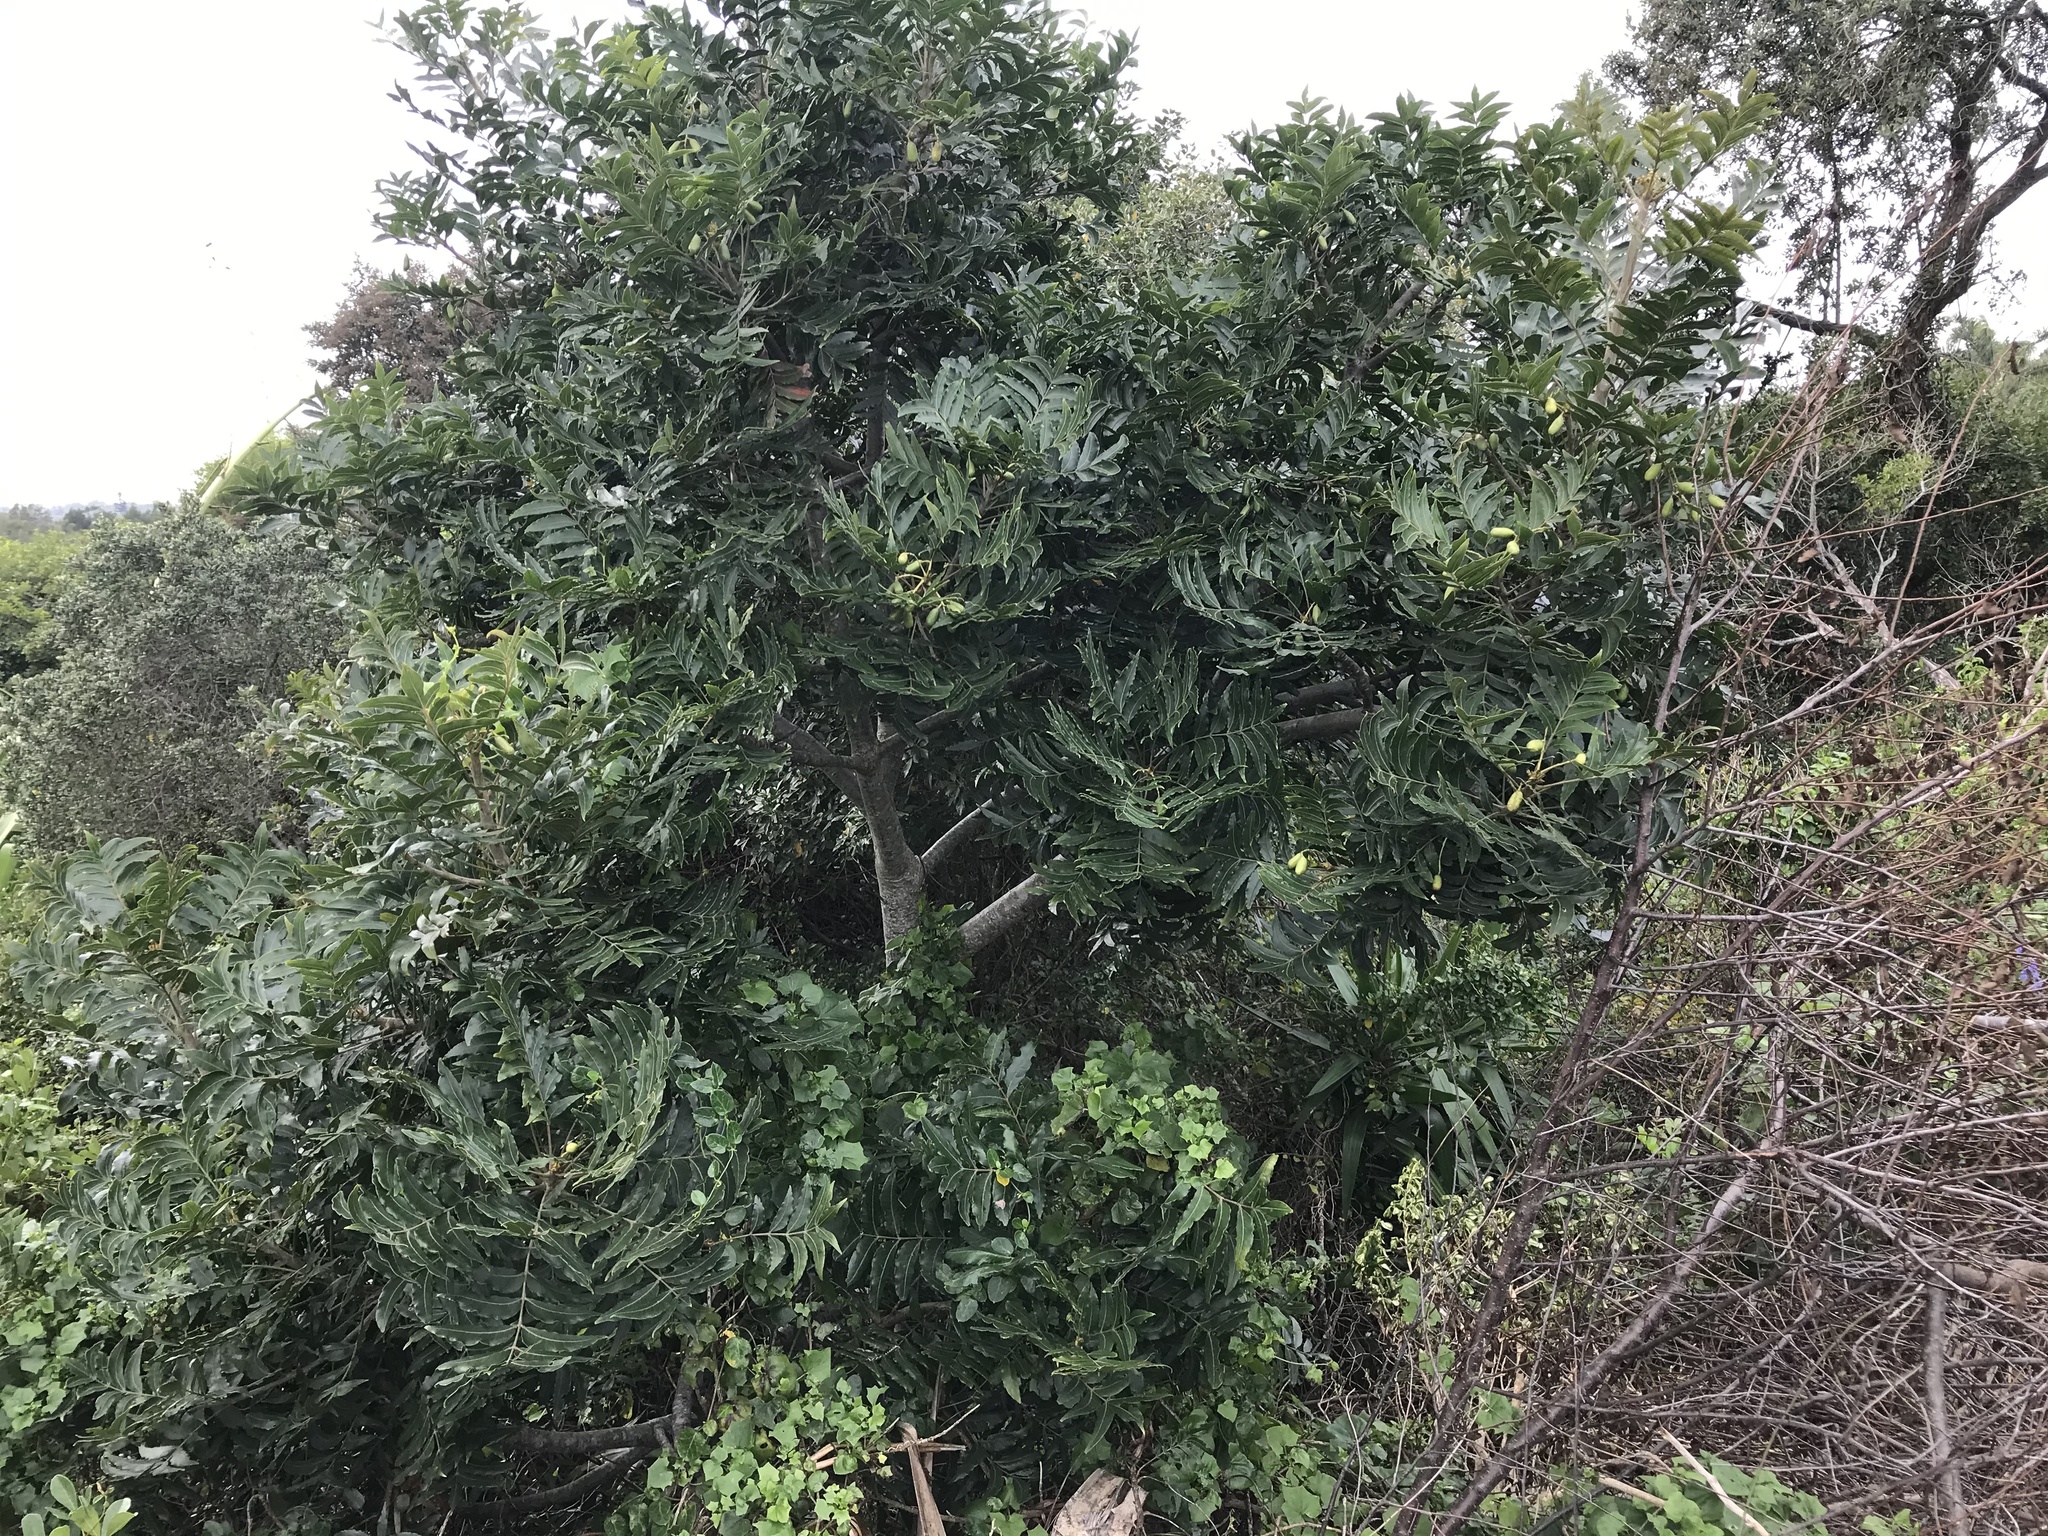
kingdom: Plantae
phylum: Tracheophyta
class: Magnoliopsida
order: Sapindales
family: Anacardiaceae
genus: Harpephyllum
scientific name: Harpephyllum caffrum
